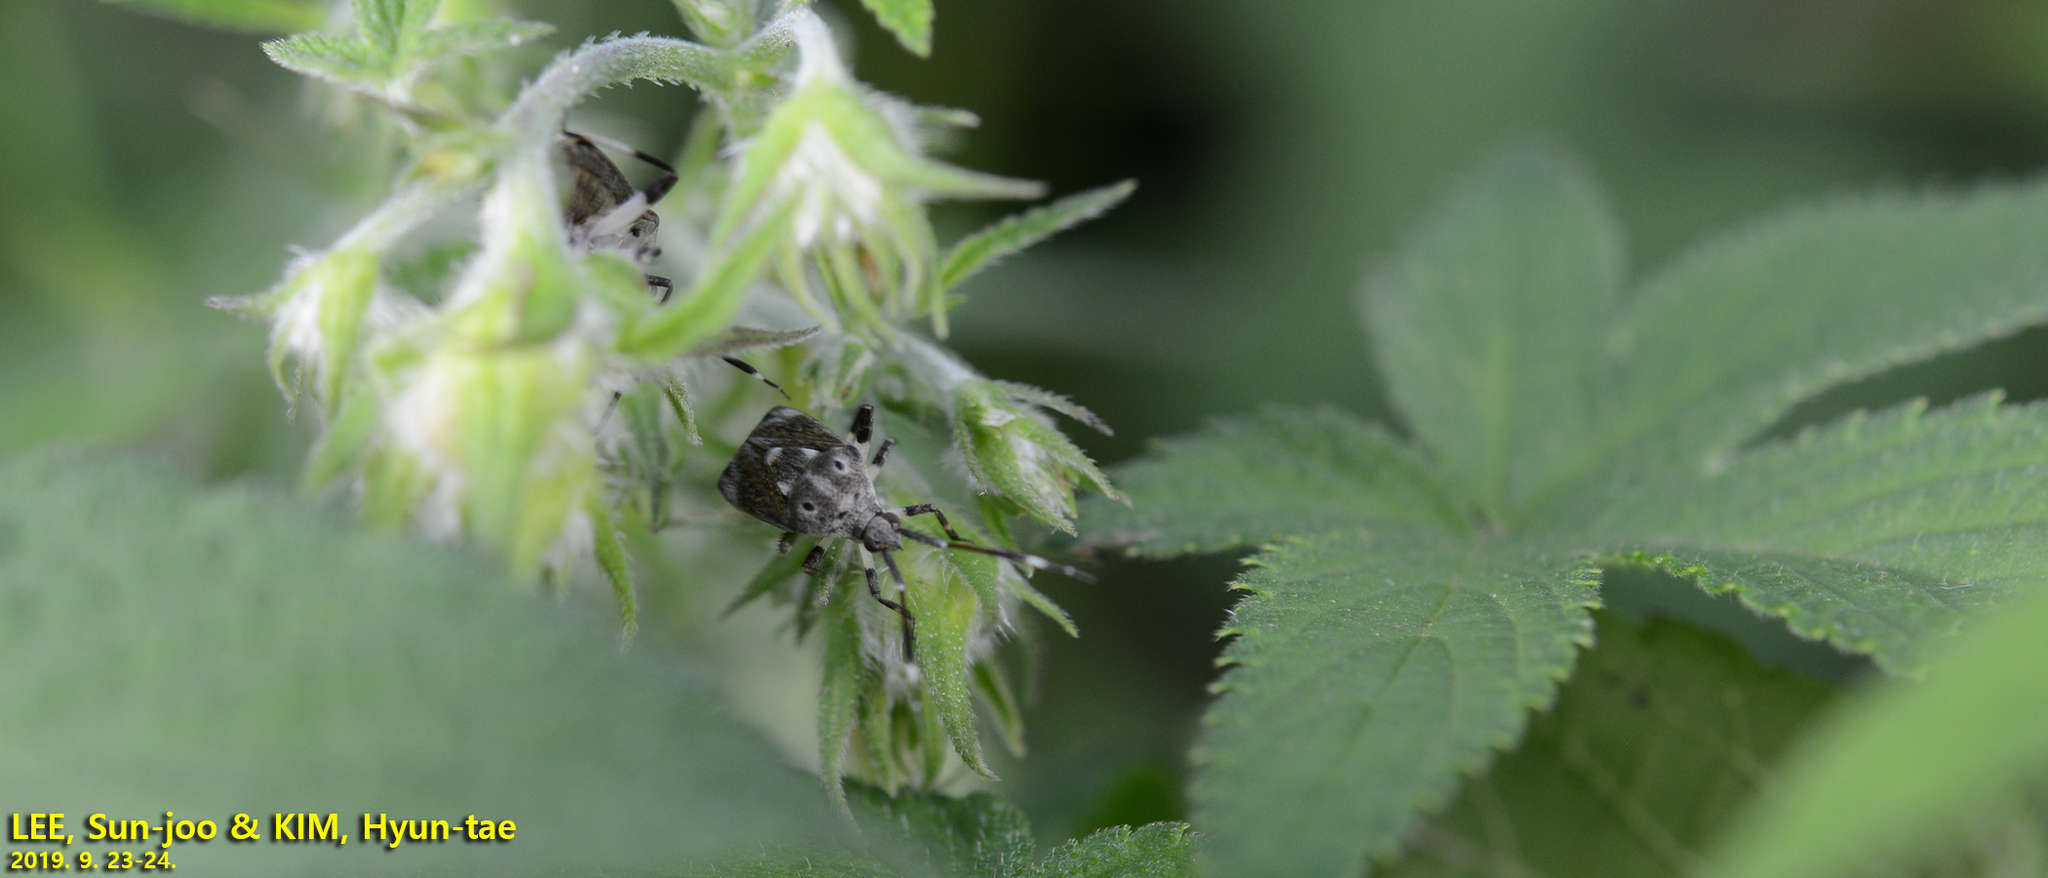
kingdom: Animalia
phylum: Arthropoda
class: Insecta
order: Hemiptera
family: Miridae
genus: Eurystylus
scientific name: Eurystylus coelestialium
